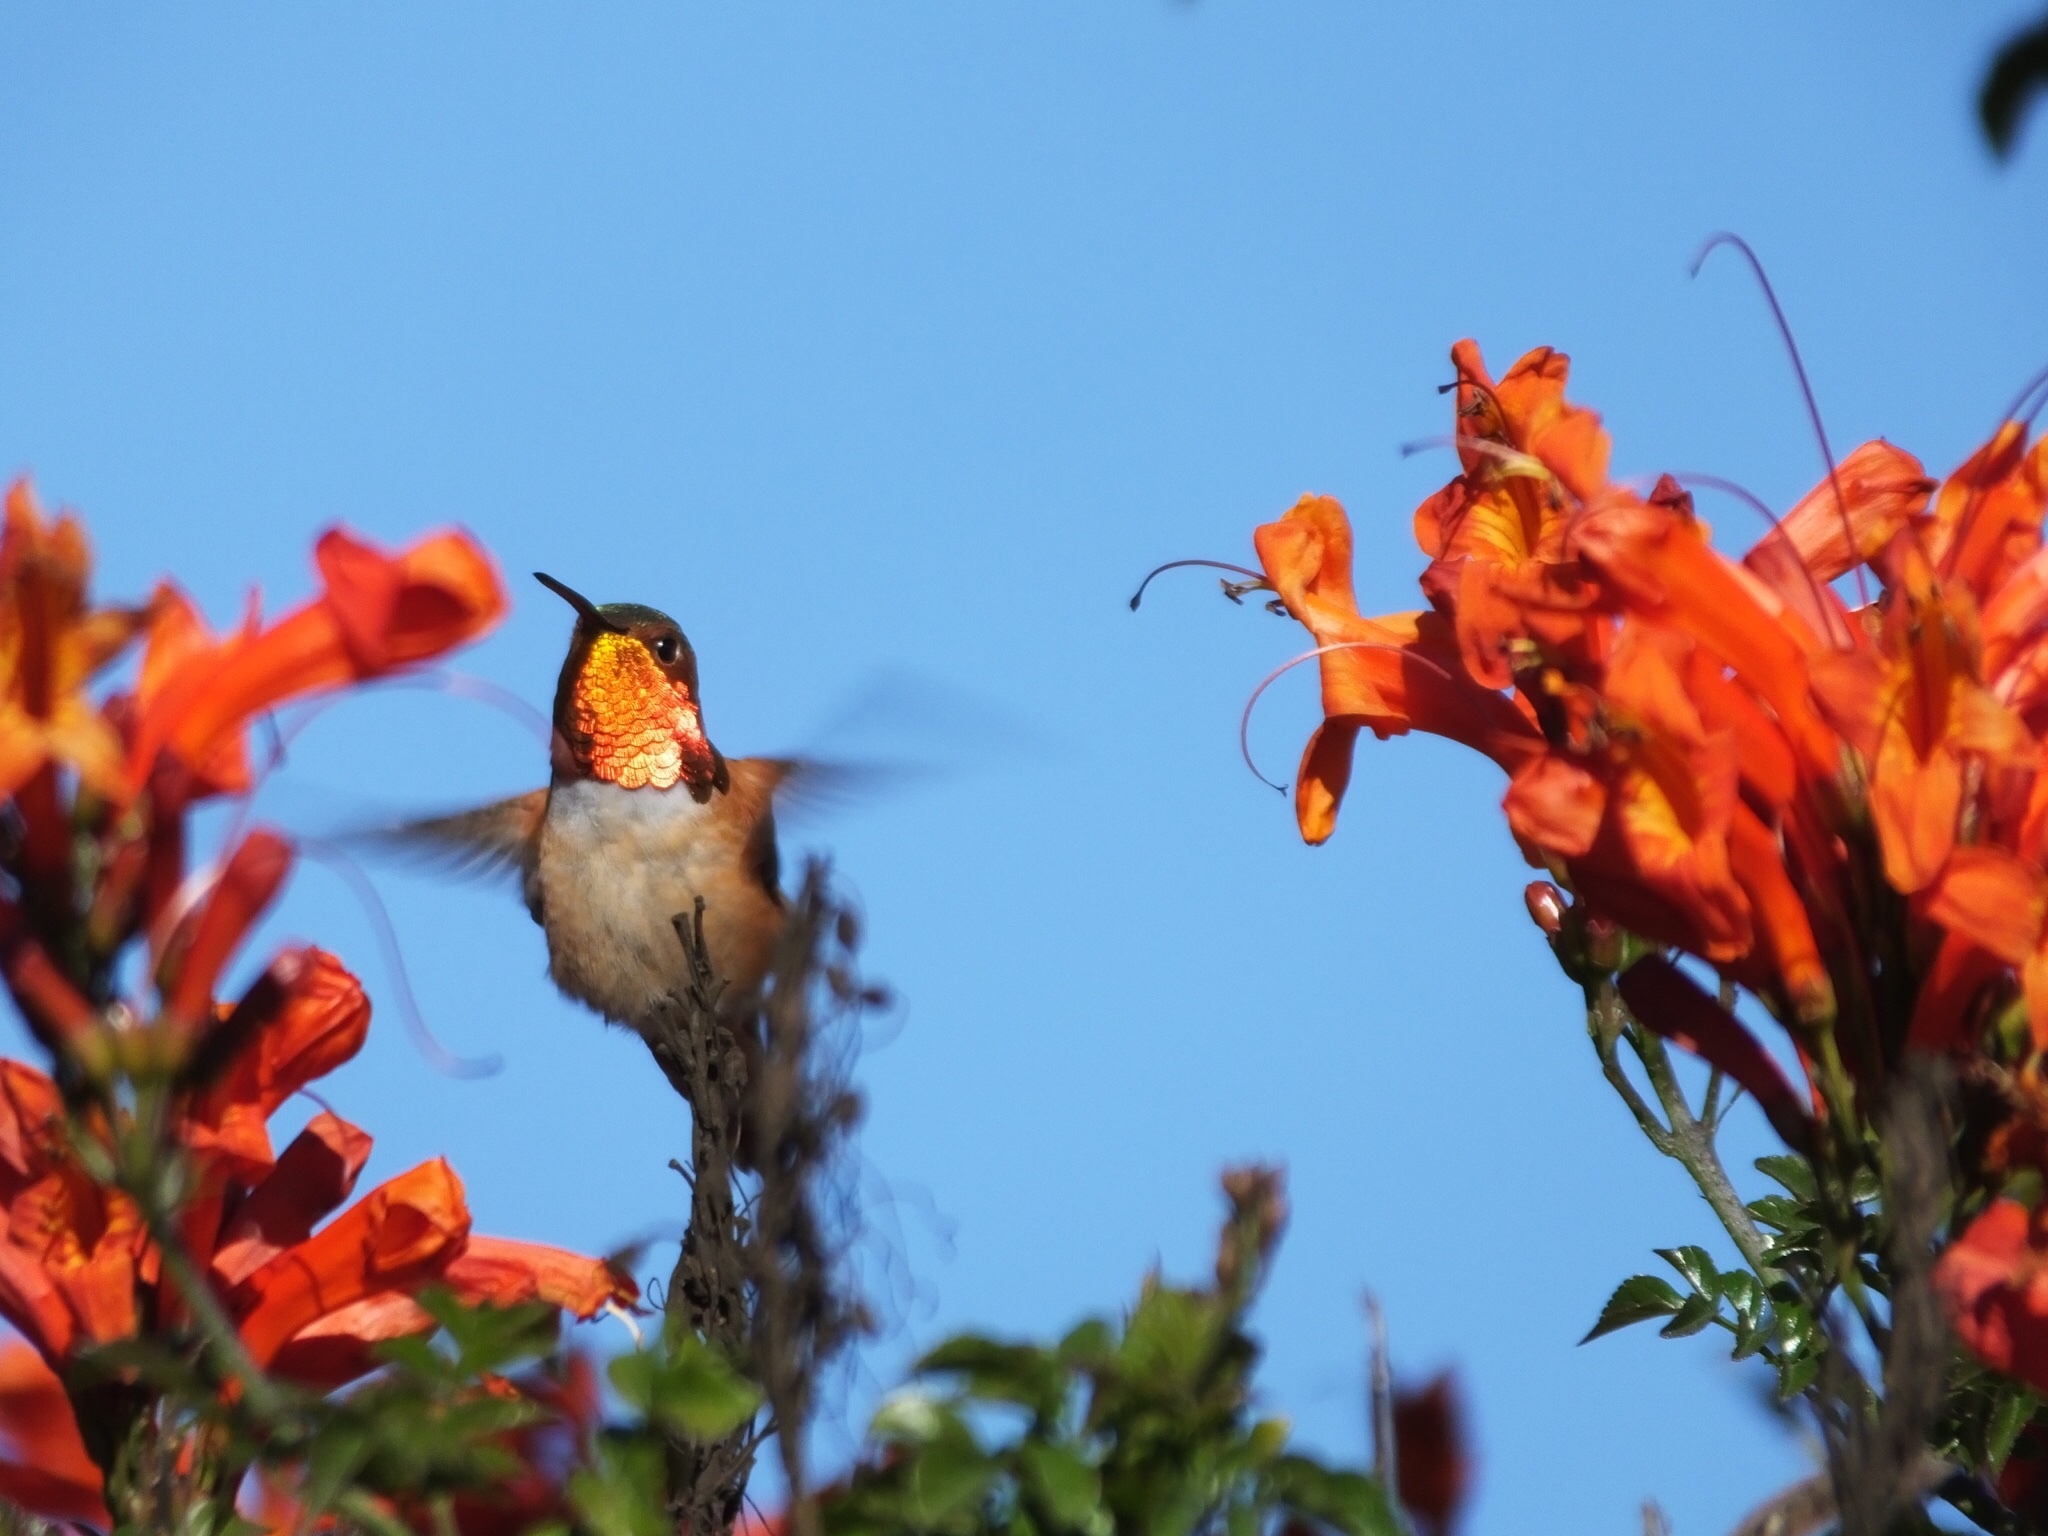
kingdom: Animalia
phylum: Chordata
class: Aves
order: Apodiformes
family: Trochilidae
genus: Selasphorus
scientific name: Selasphorus
